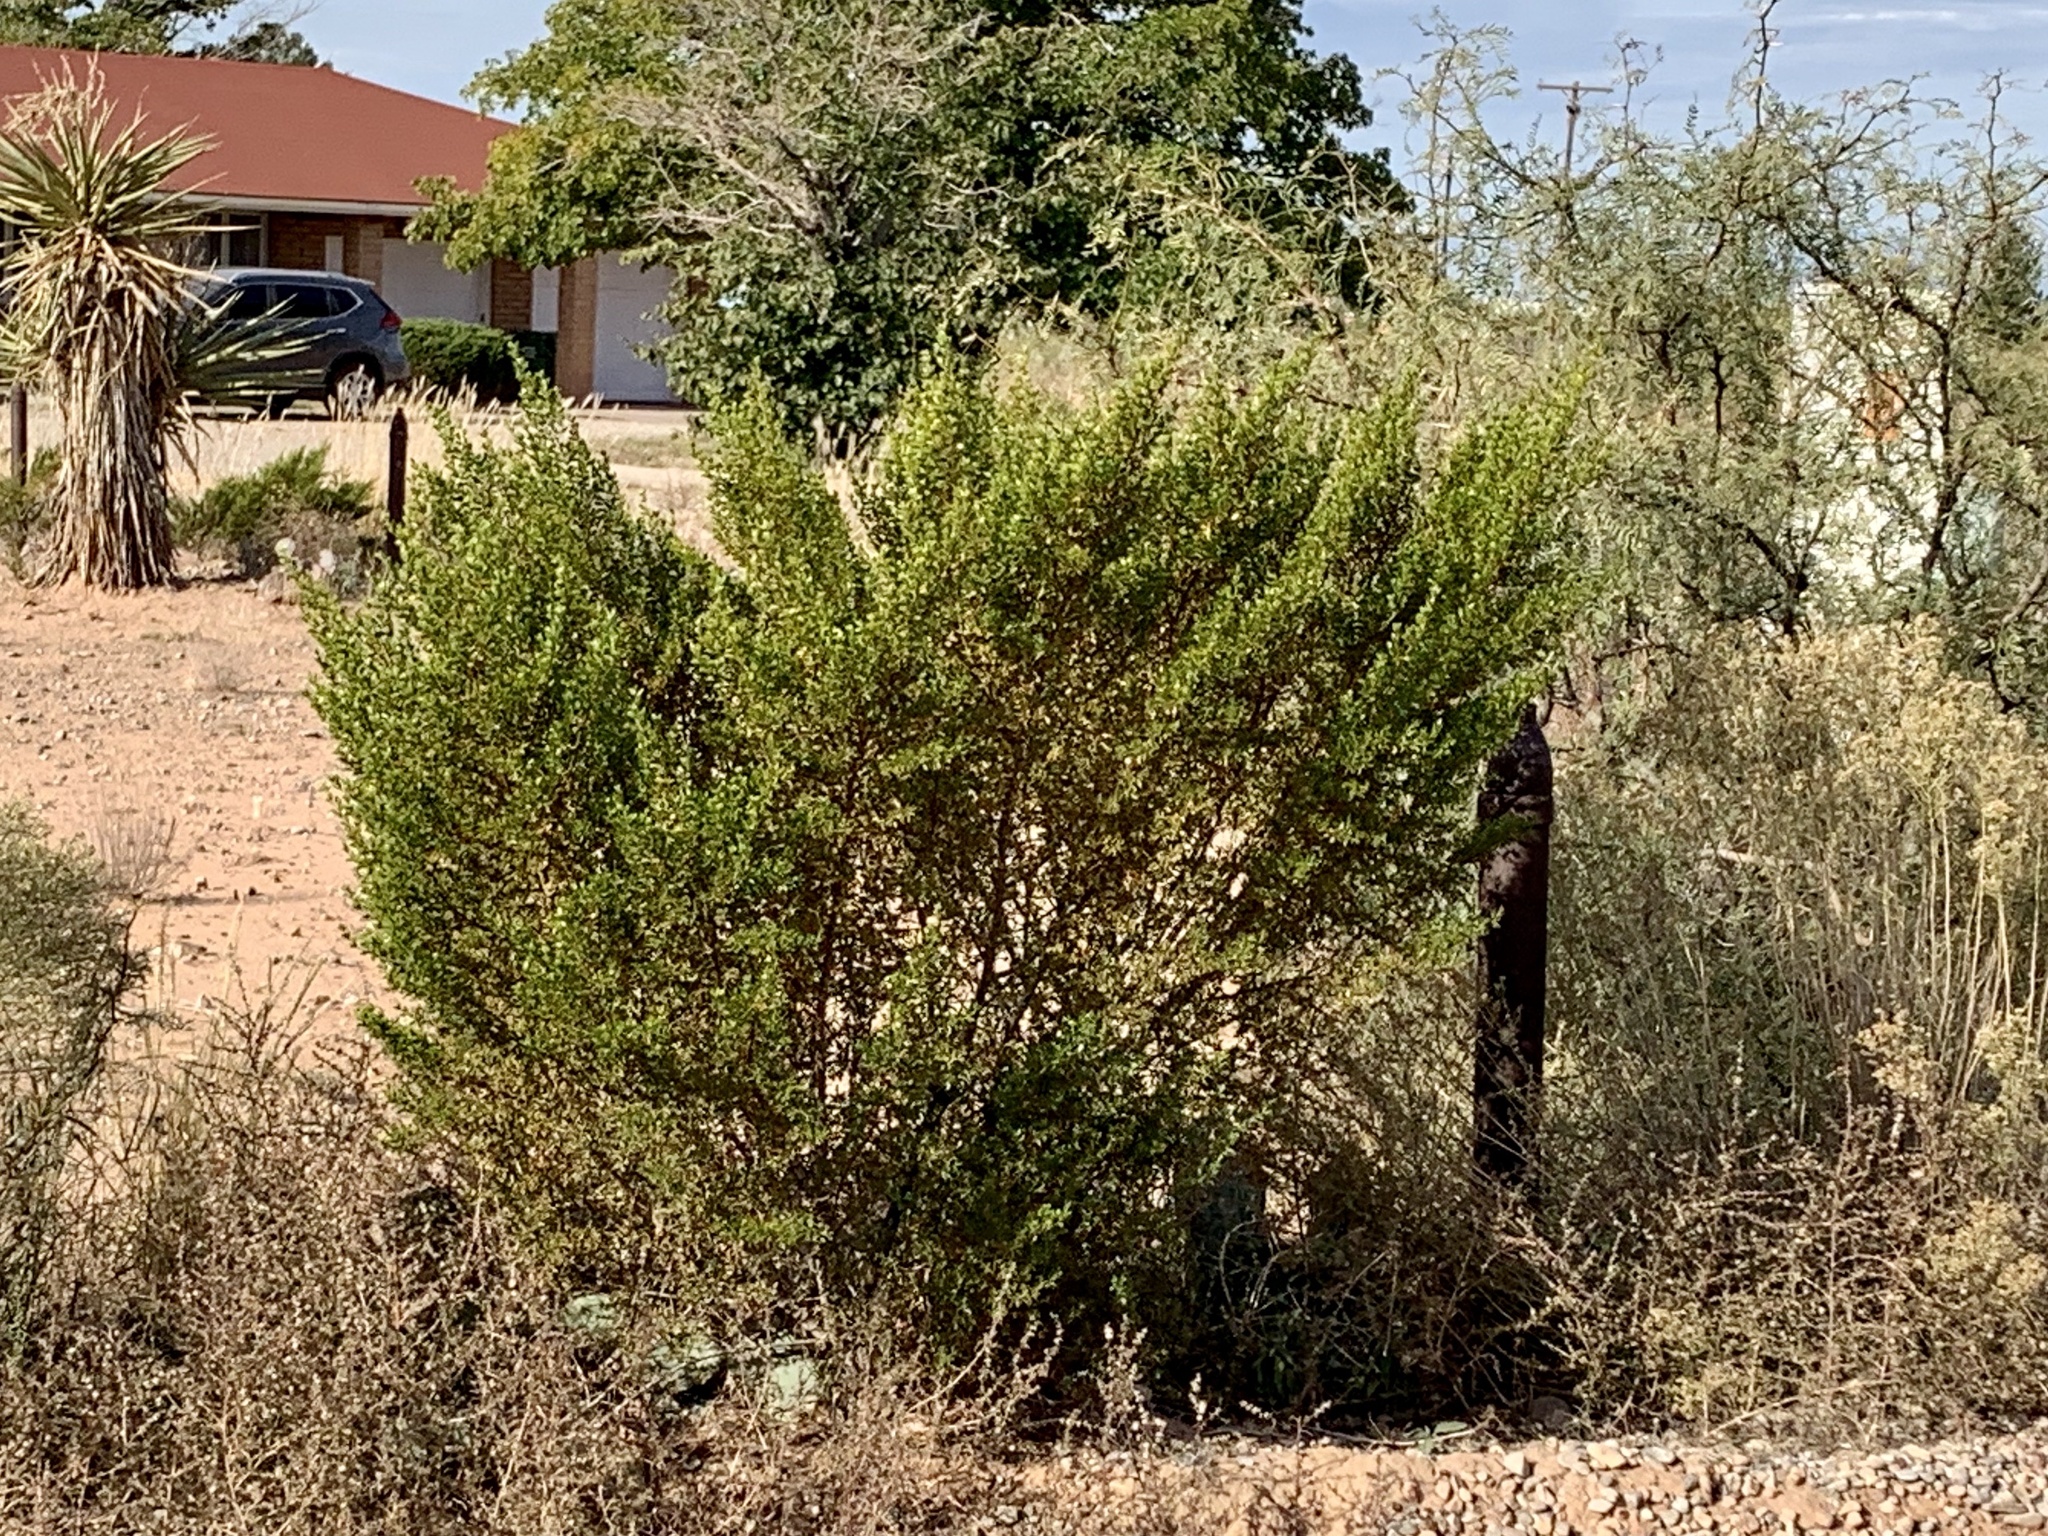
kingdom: Plantae
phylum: Tracheophyta
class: Magnoliopsida
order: Zygophyllales
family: Zygophyllaceae
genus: Larrea
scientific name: Larrea tridentata
